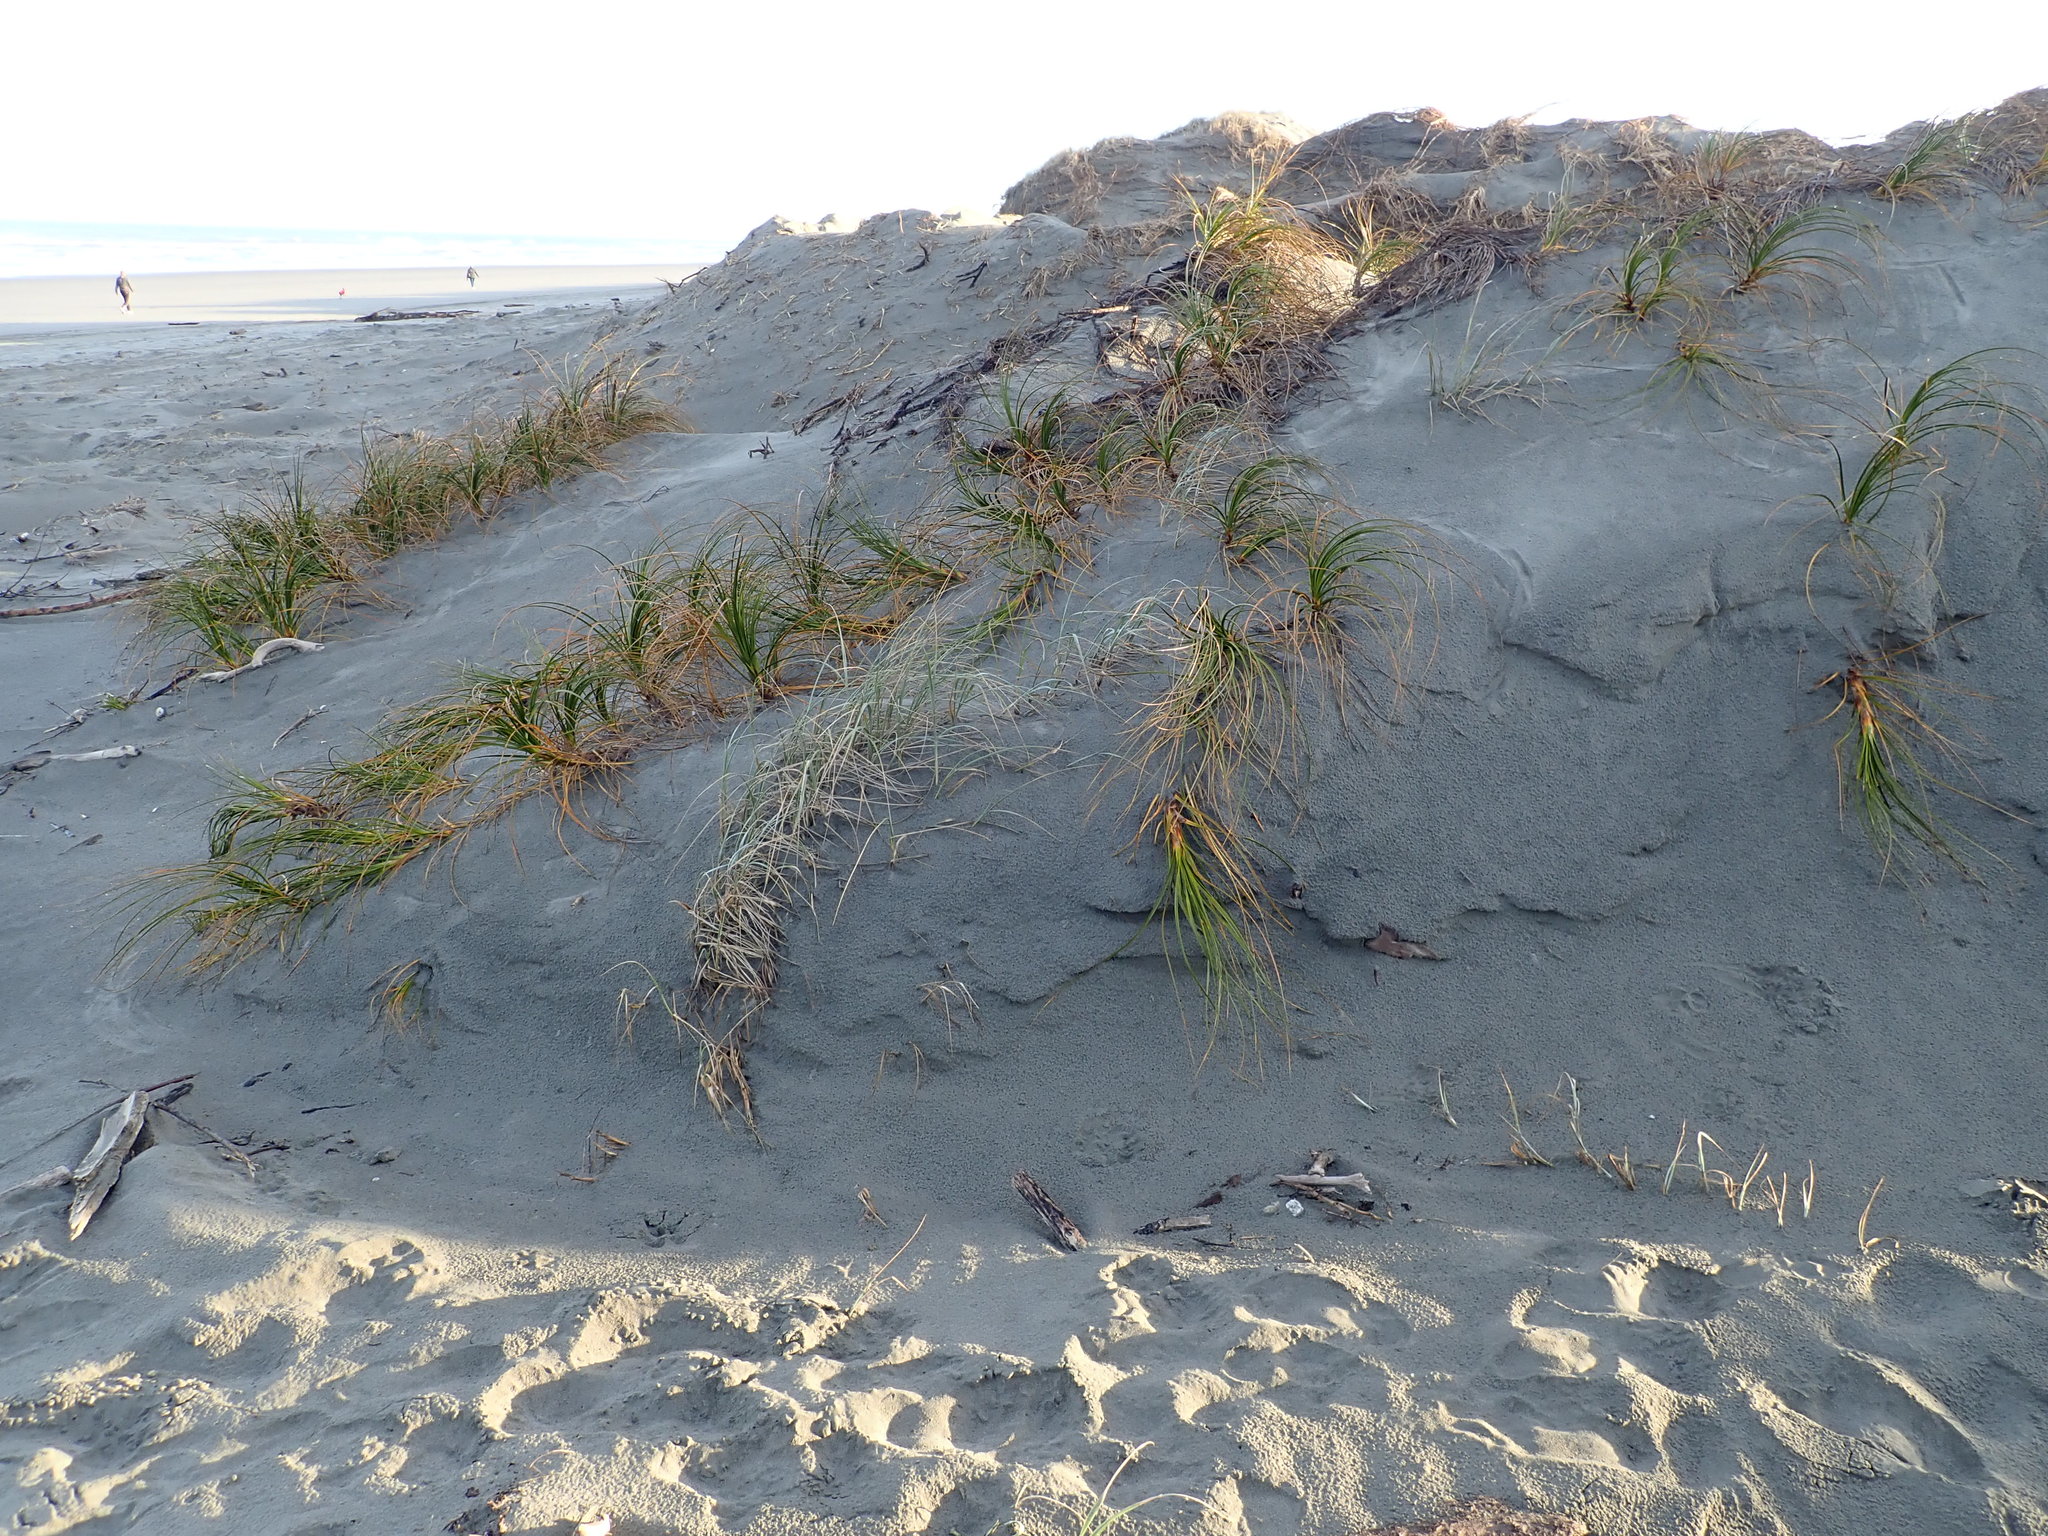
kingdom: Plantae
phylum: Tracheophyta
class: Liliopsida
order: Poales
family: Cyperaceae
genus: Ficinia
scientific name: Ficinia spiralis
